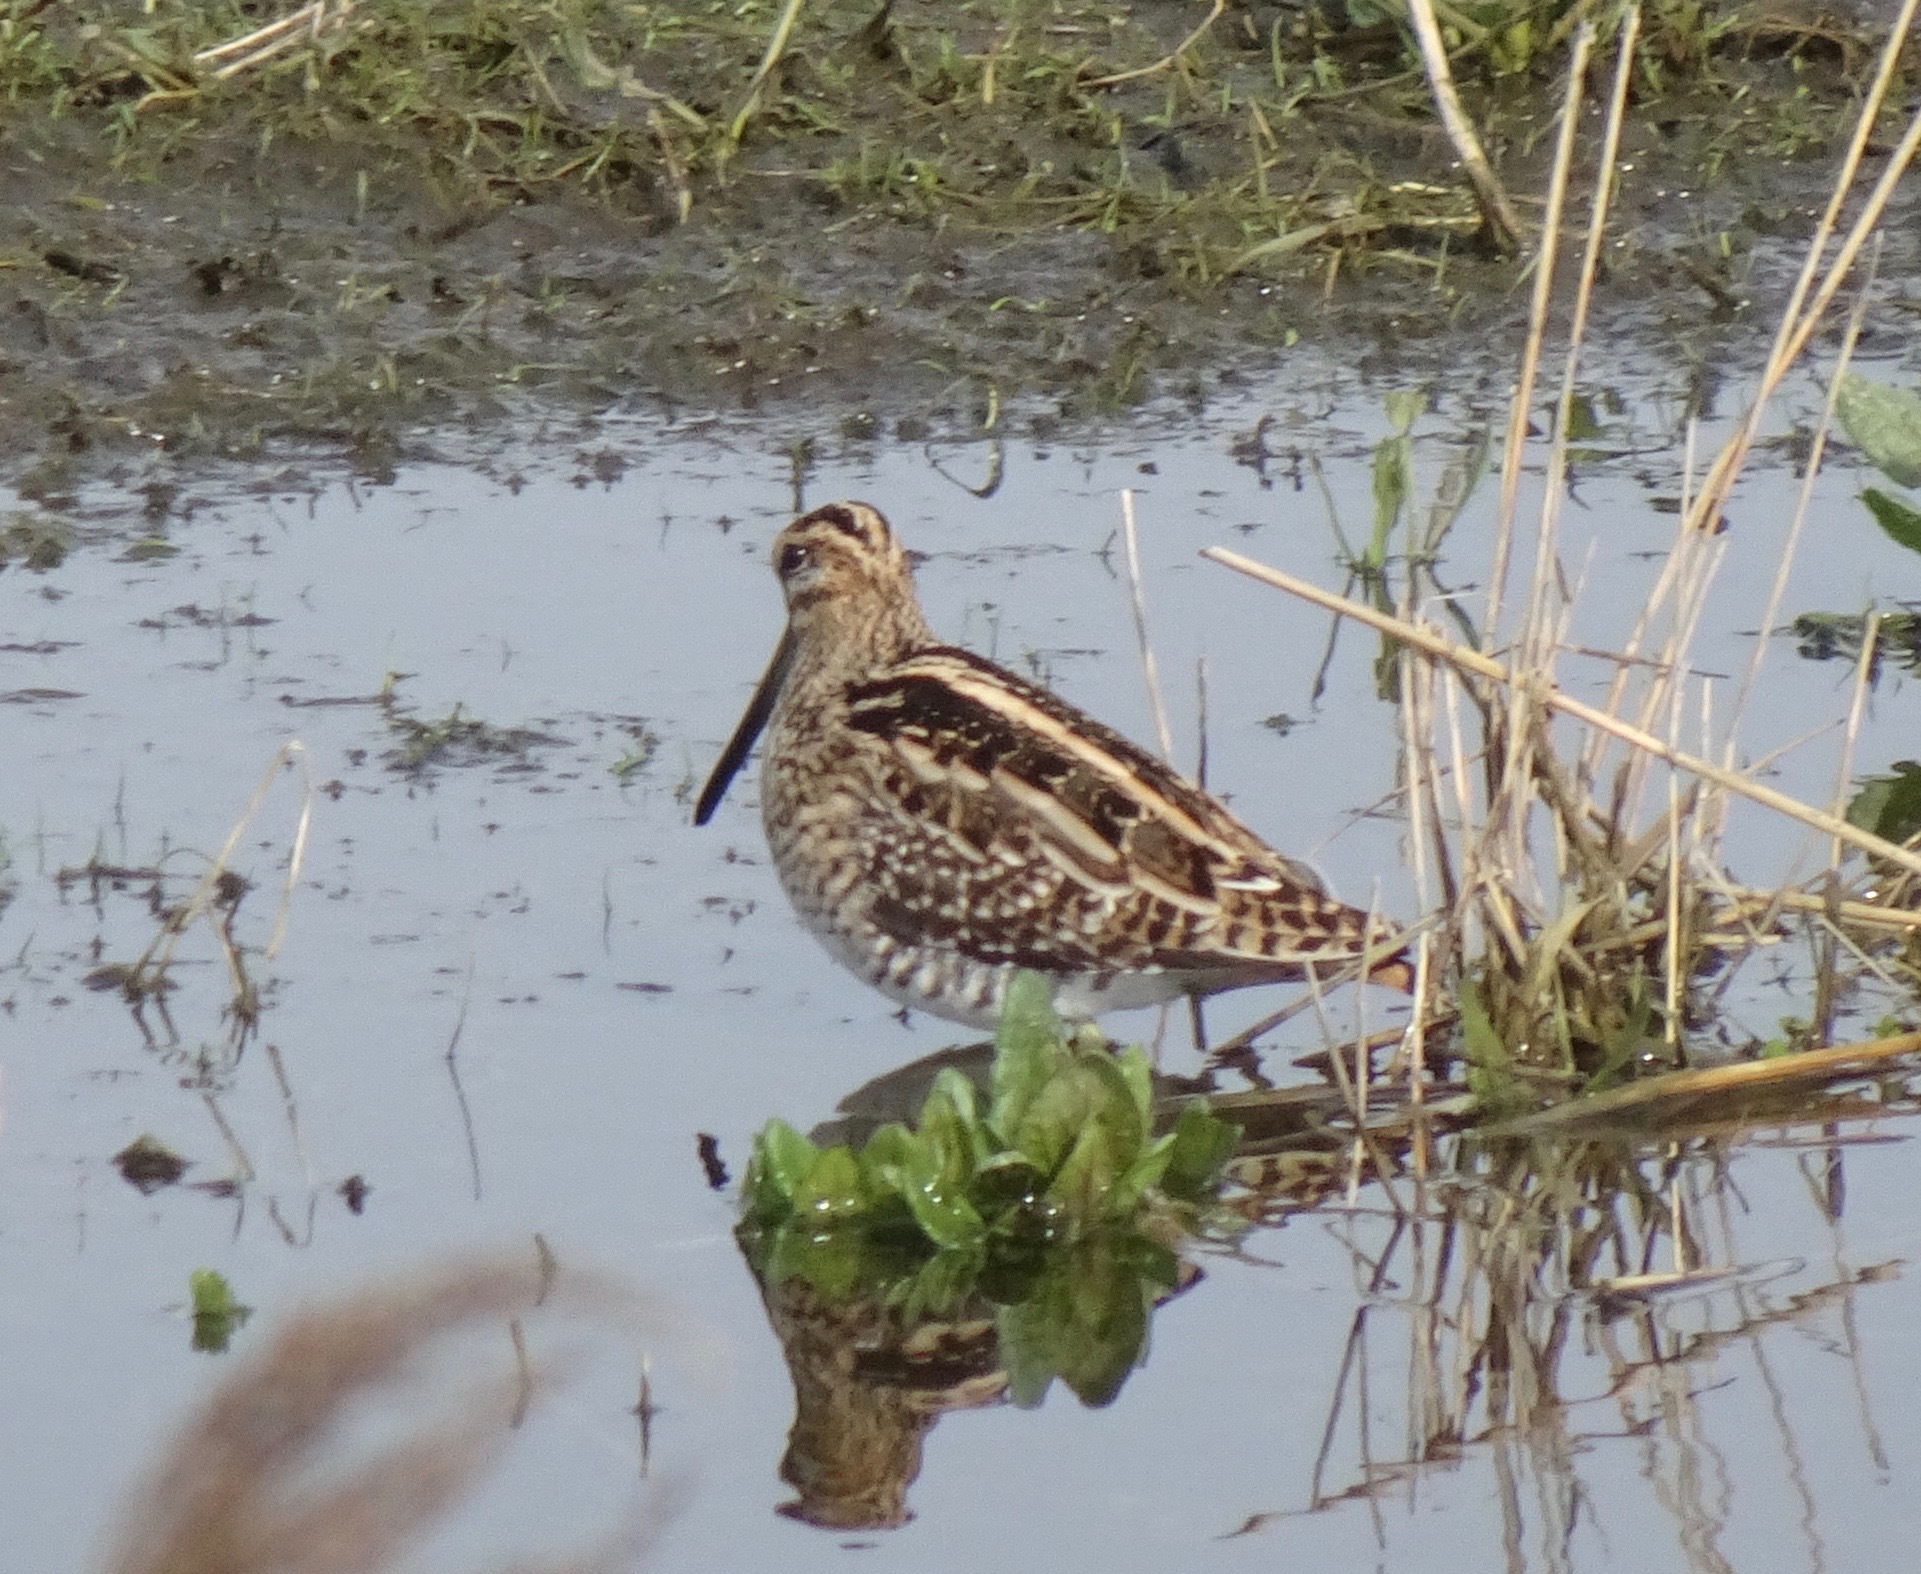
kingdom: Animalia
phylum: Chordata
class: Aves
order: Charadriiformes
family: Scolopacidae
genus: Gallinago
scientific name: Gallinago gallinago
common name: Common snipe
